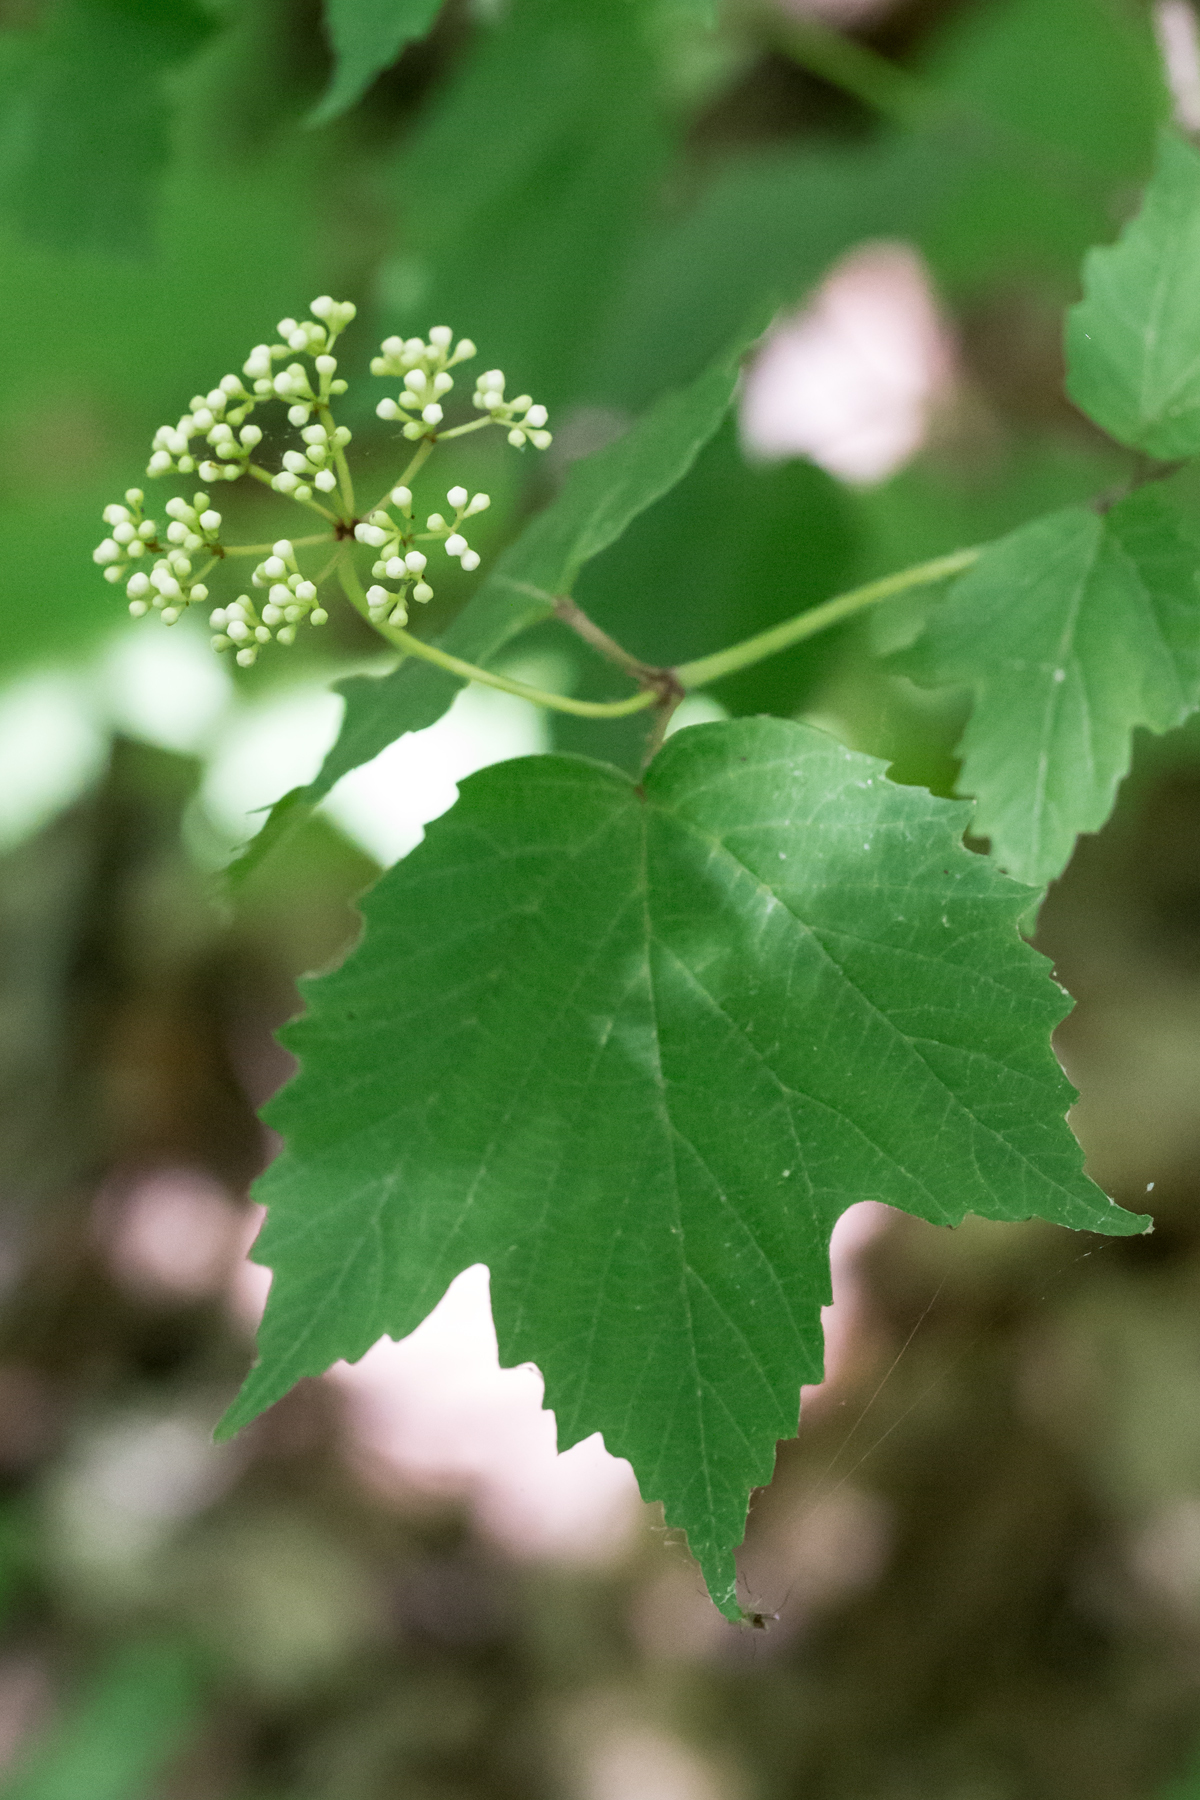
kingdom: Plantae
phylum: Tracheophyta
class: Magnoliopsida
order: Dipsacales
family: Viburnaceae
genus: Viburnum
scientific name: Viburnum acerifolium
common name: Dockmackie
